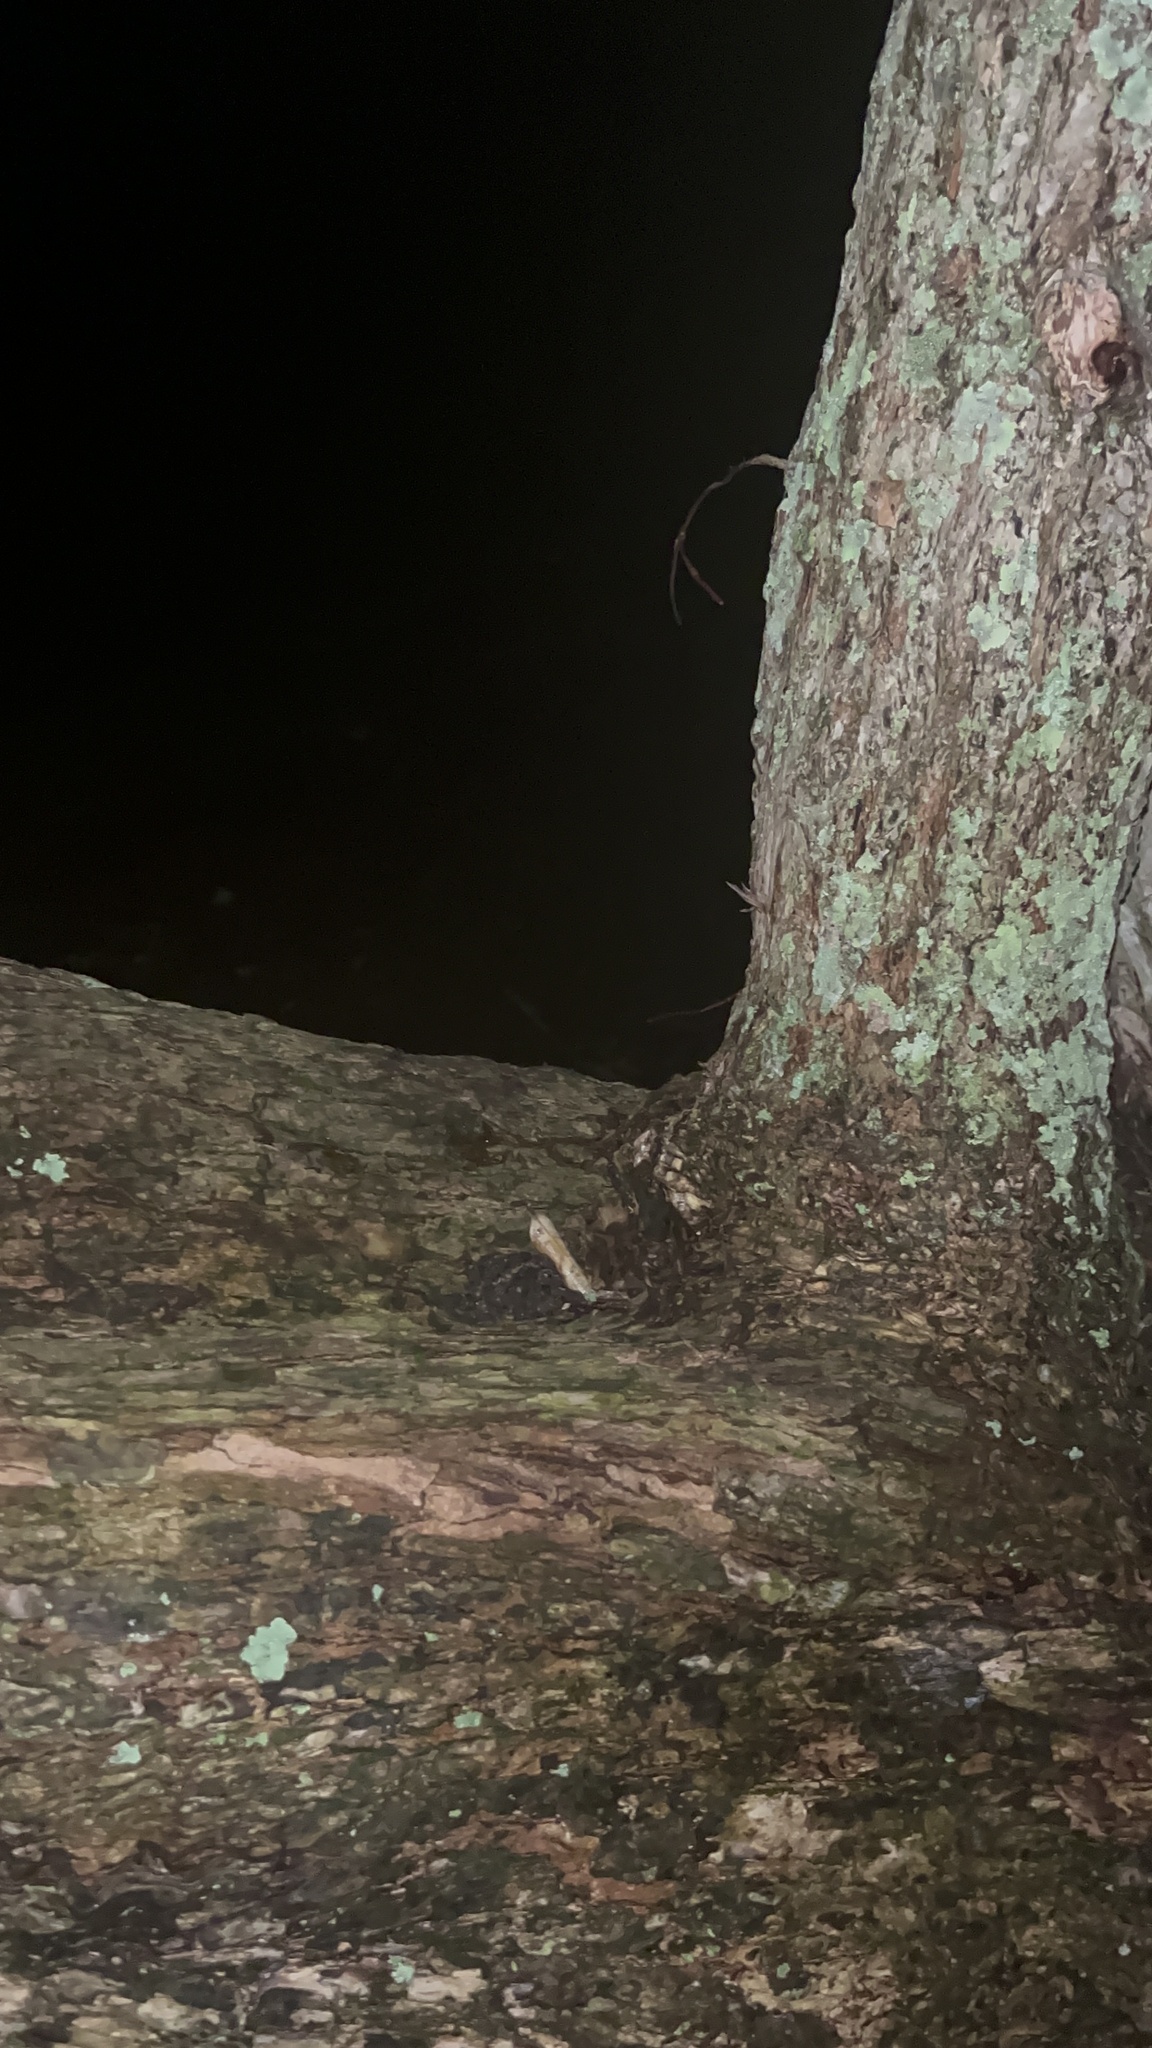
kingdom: Animalia
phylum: Chordata
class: Mammalia
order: Diprotodontia
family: Phalangeridae
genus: Trichosurus
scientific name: Trichosurus vulpecula
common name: Common brushtail
